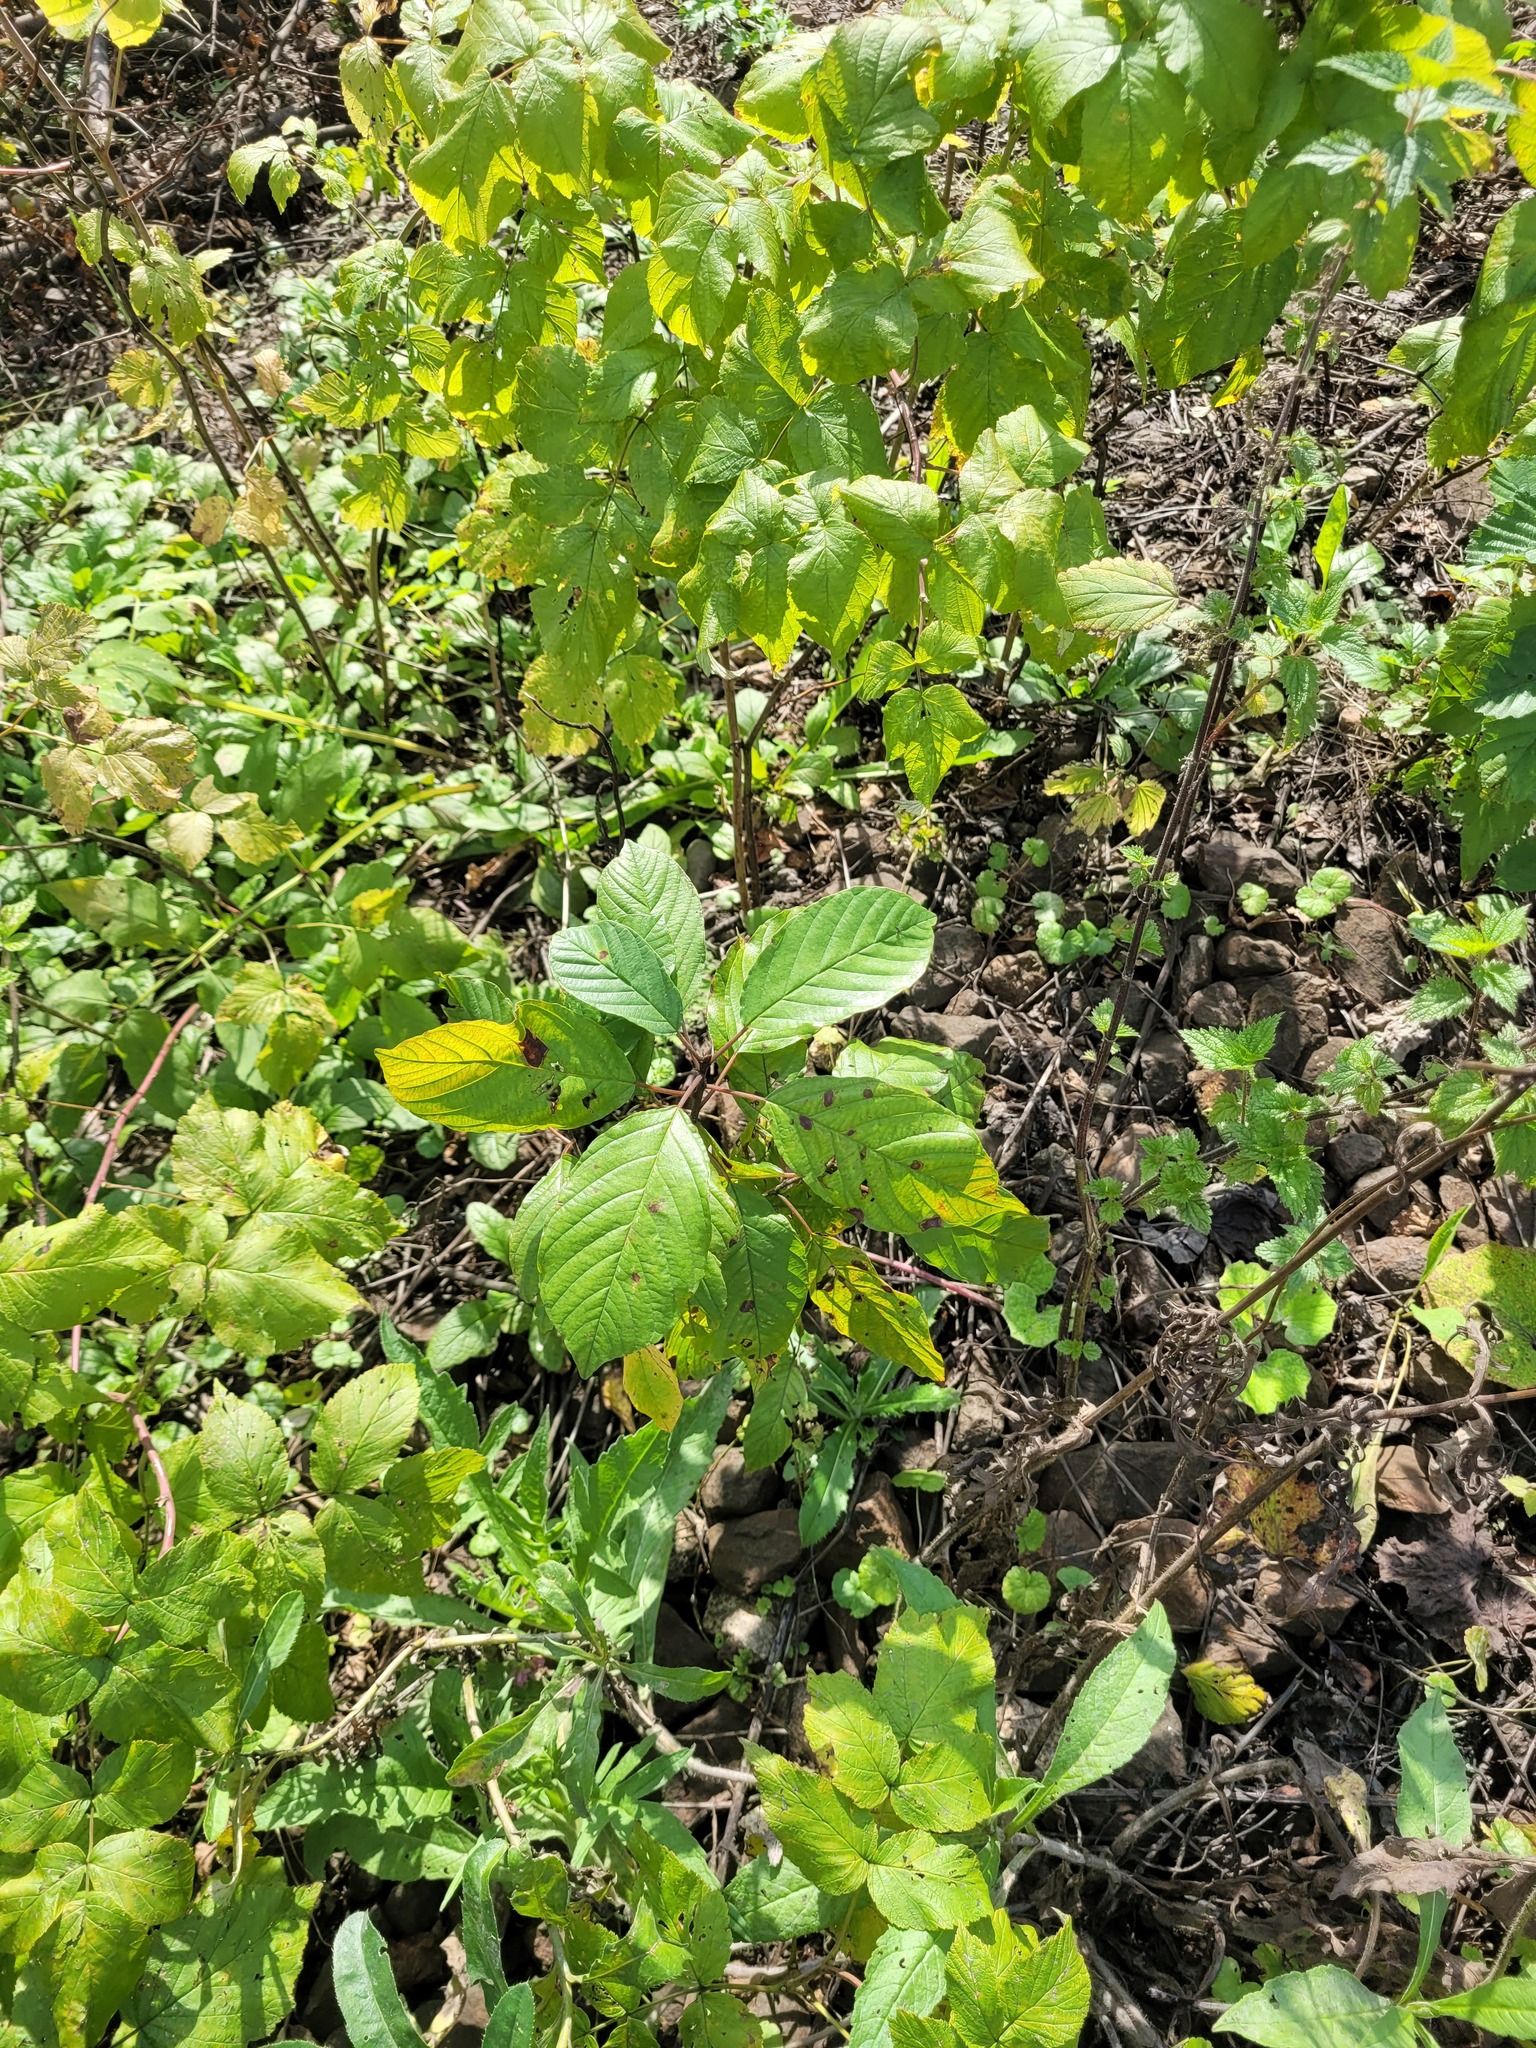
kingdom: Plantae
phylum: Tracheophyta
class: Magnoliopsida
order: Rosales
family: Rhamnaceae
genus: Frangula
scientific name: Frangula alnus
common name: Alder buckthorn
